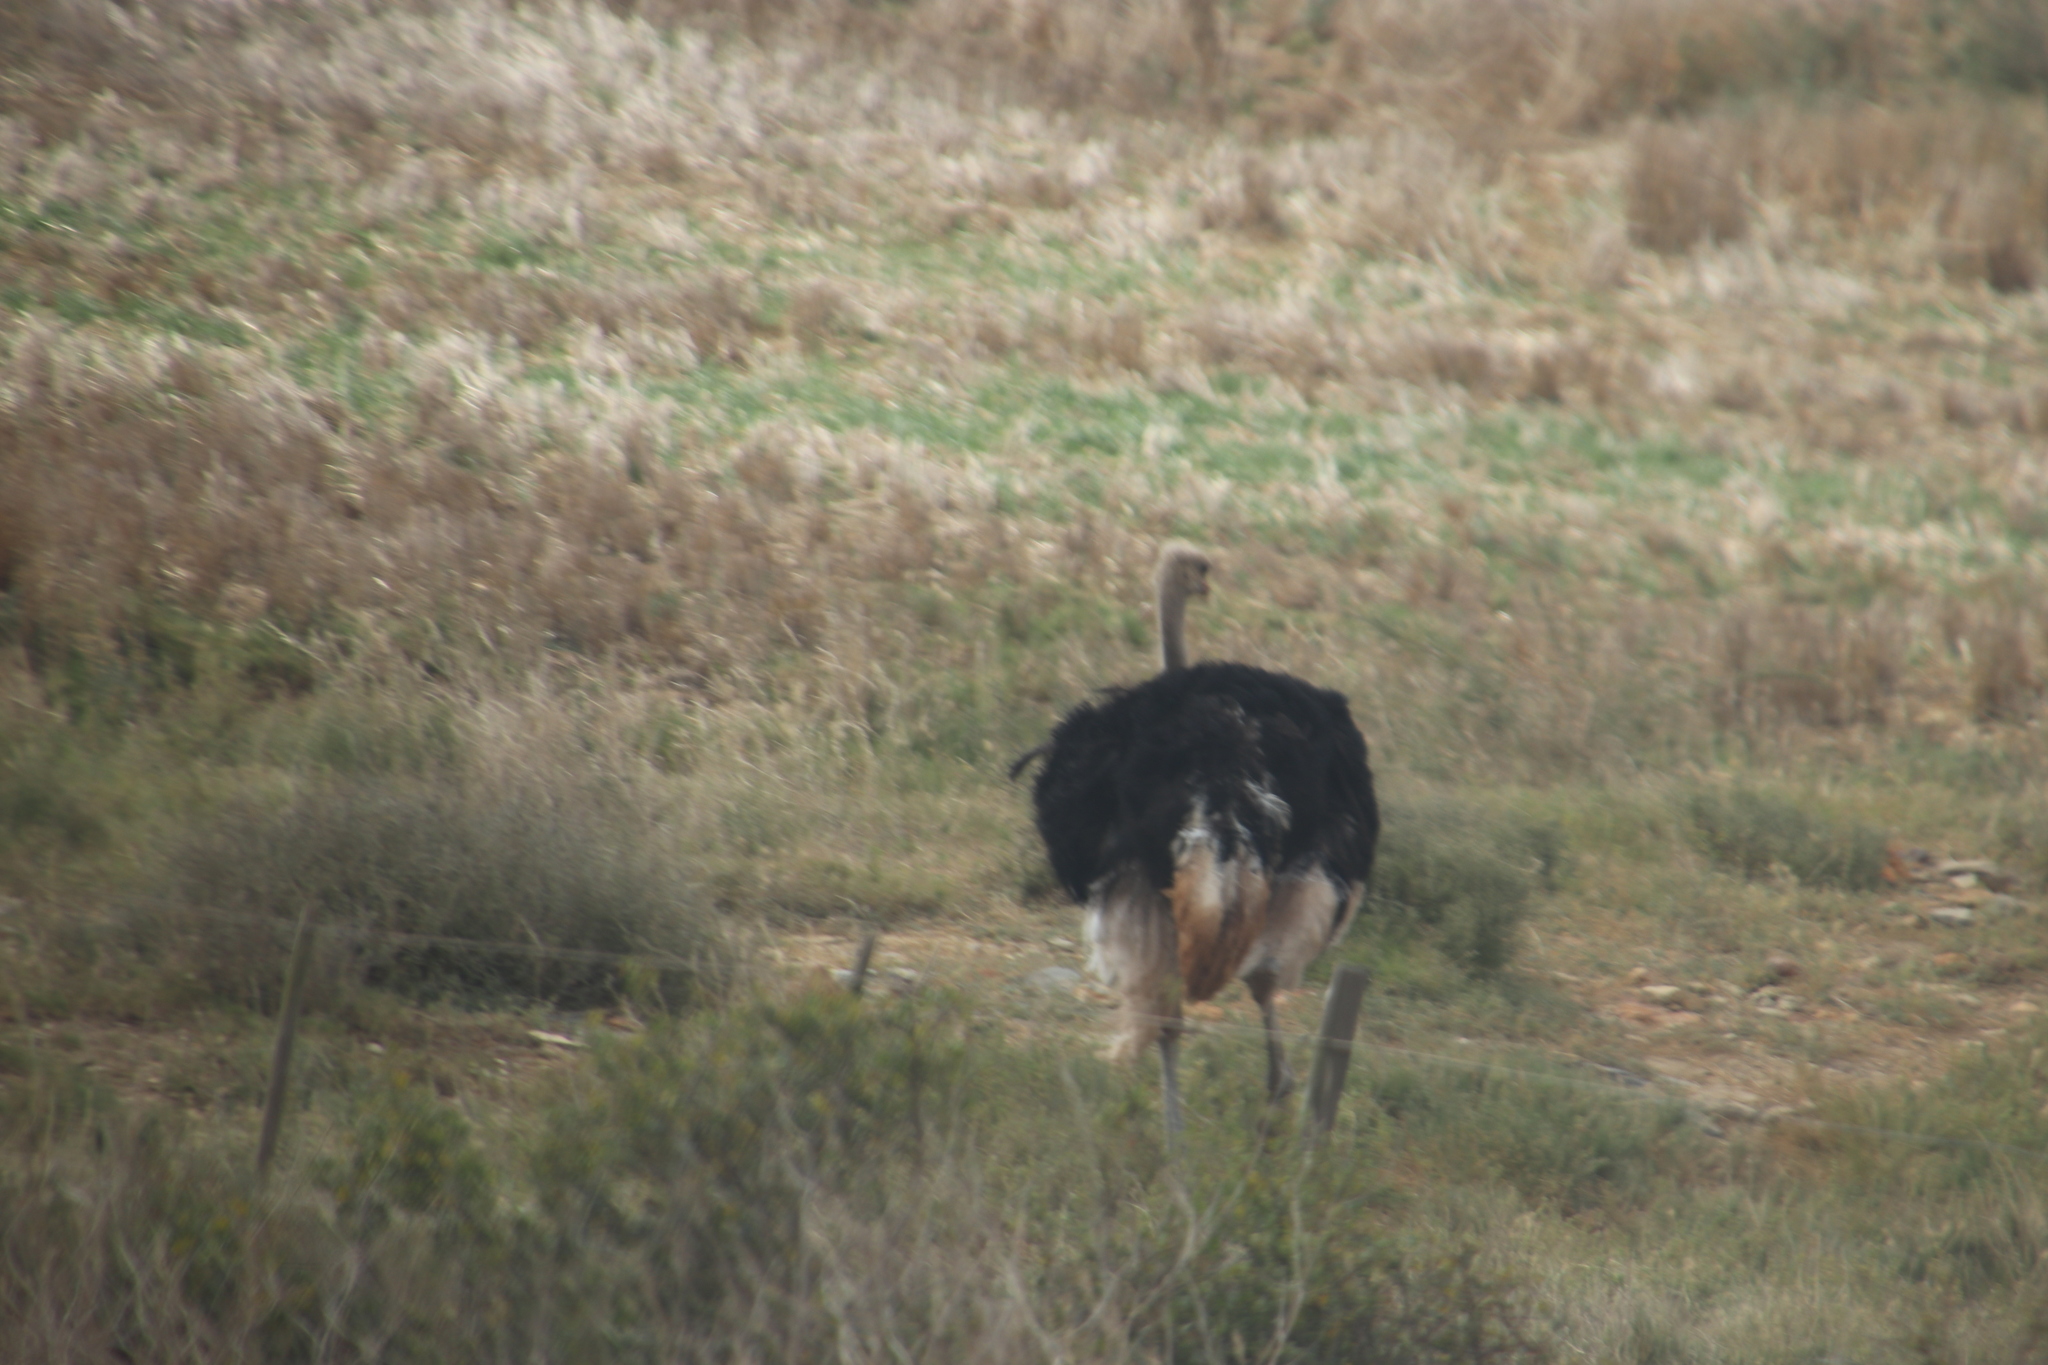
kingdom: Animalia
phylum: Chordata
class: Aves
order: Struthioniformes
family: Struthionidae
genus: Struthio
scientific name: Struthio camelus
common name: Common ostrich
